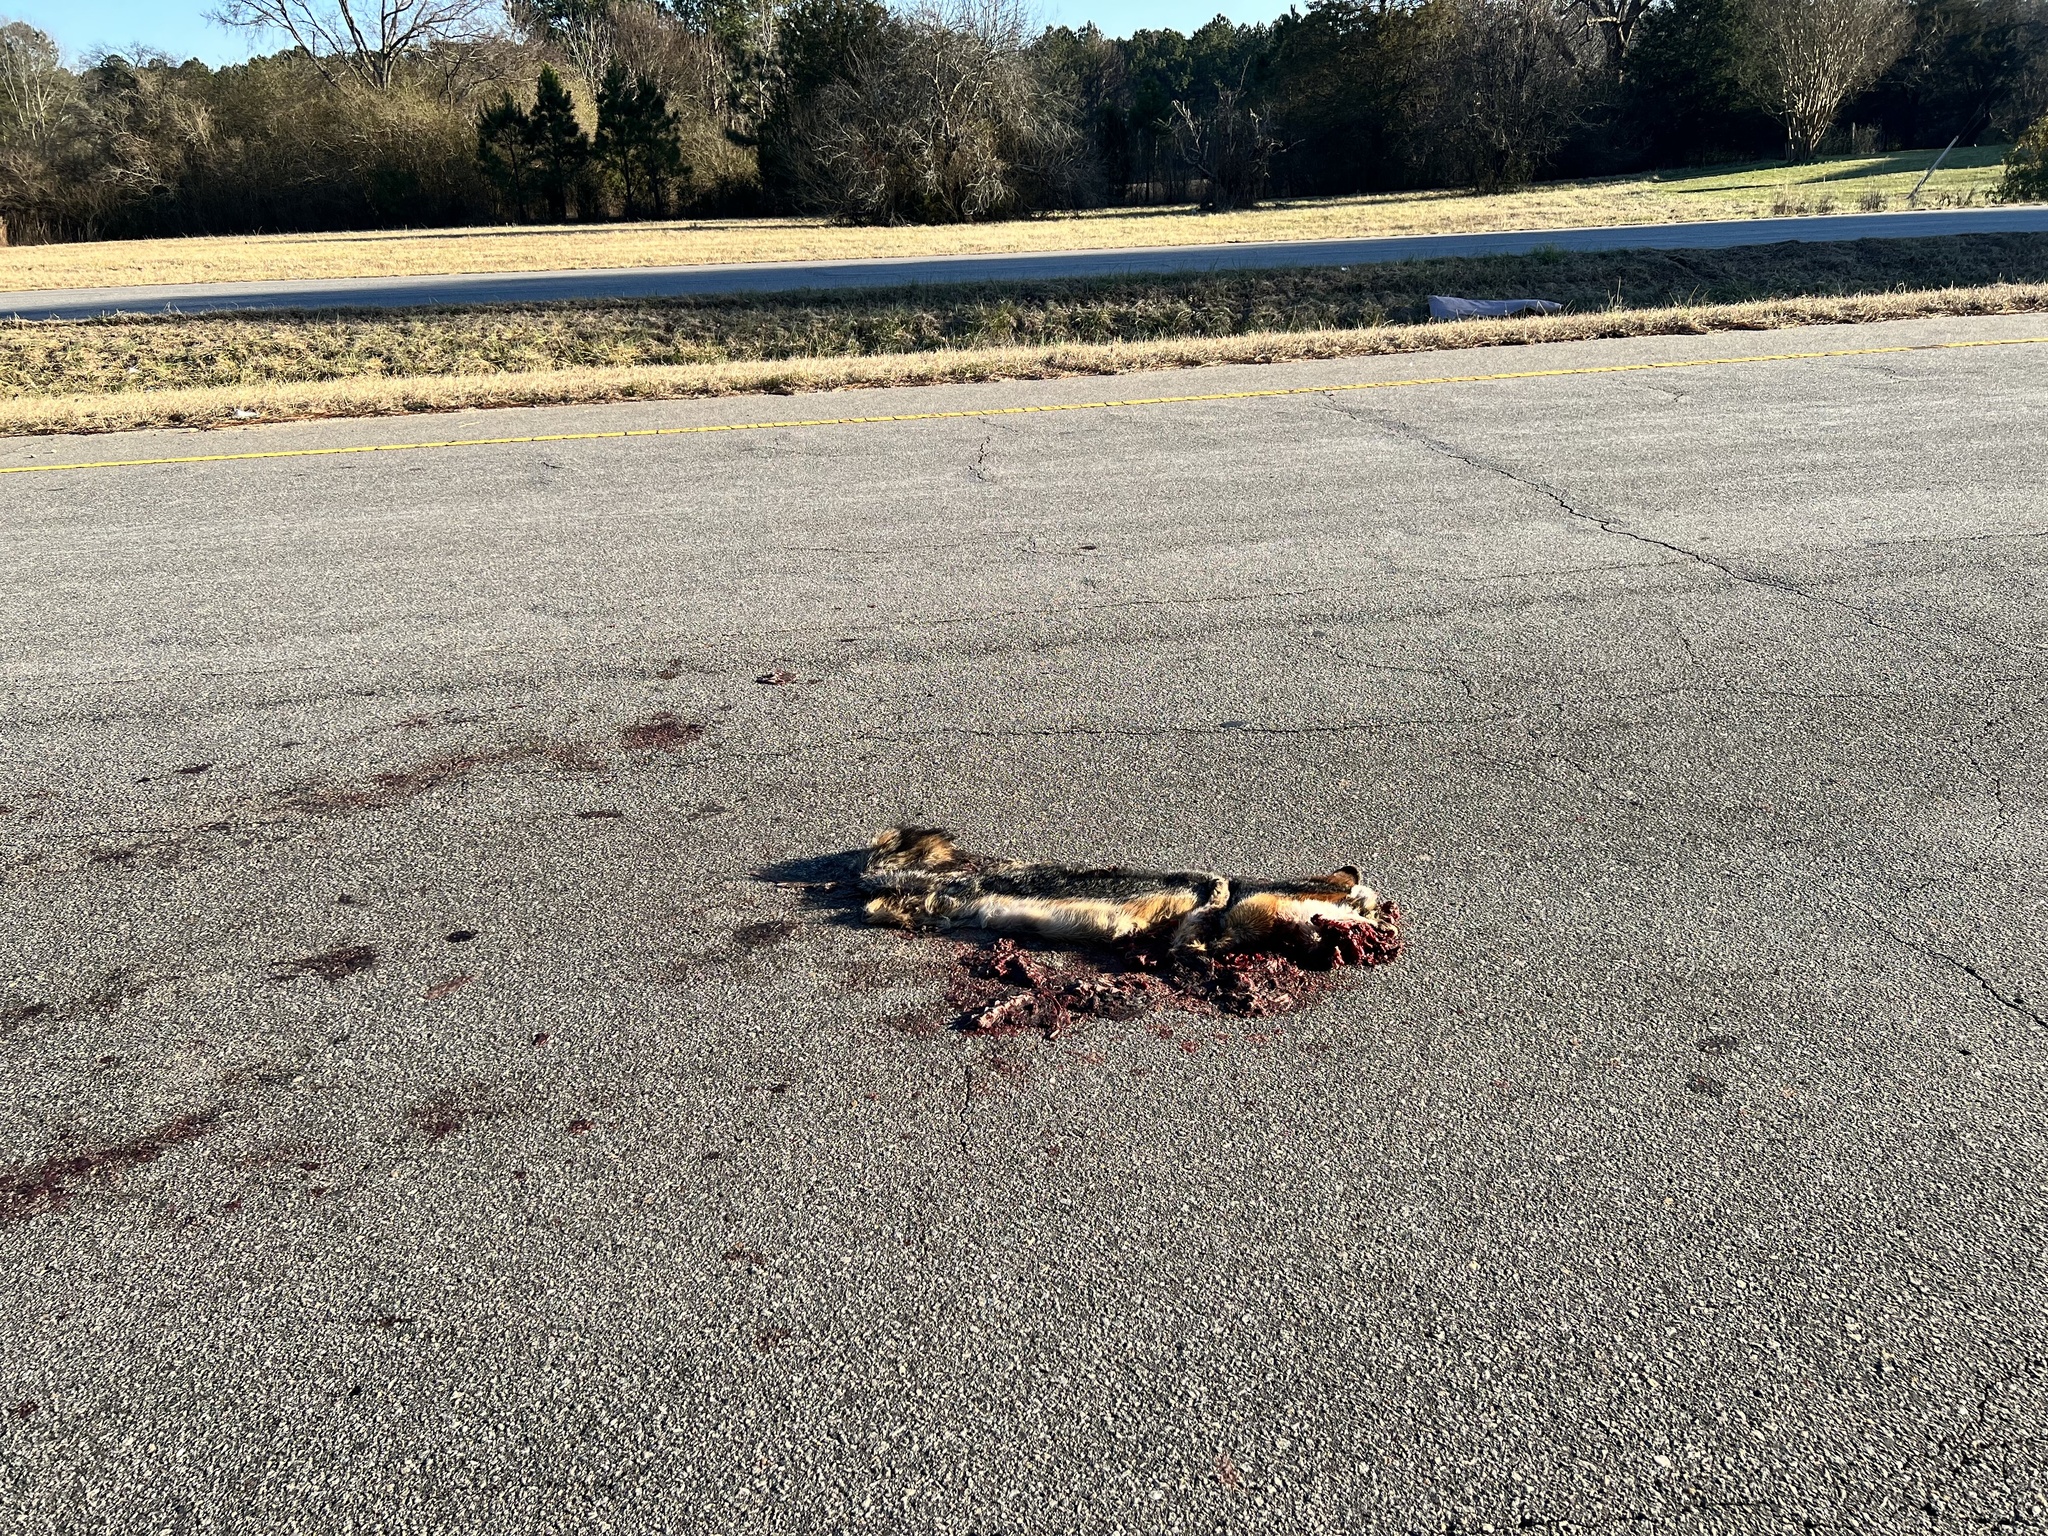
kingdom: Animalia
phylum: Chordata
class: Mammalia
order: Carnivora
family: Canidae
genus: Urocyon
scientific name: Urocyon cinereoargenteus
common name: Gray fox
